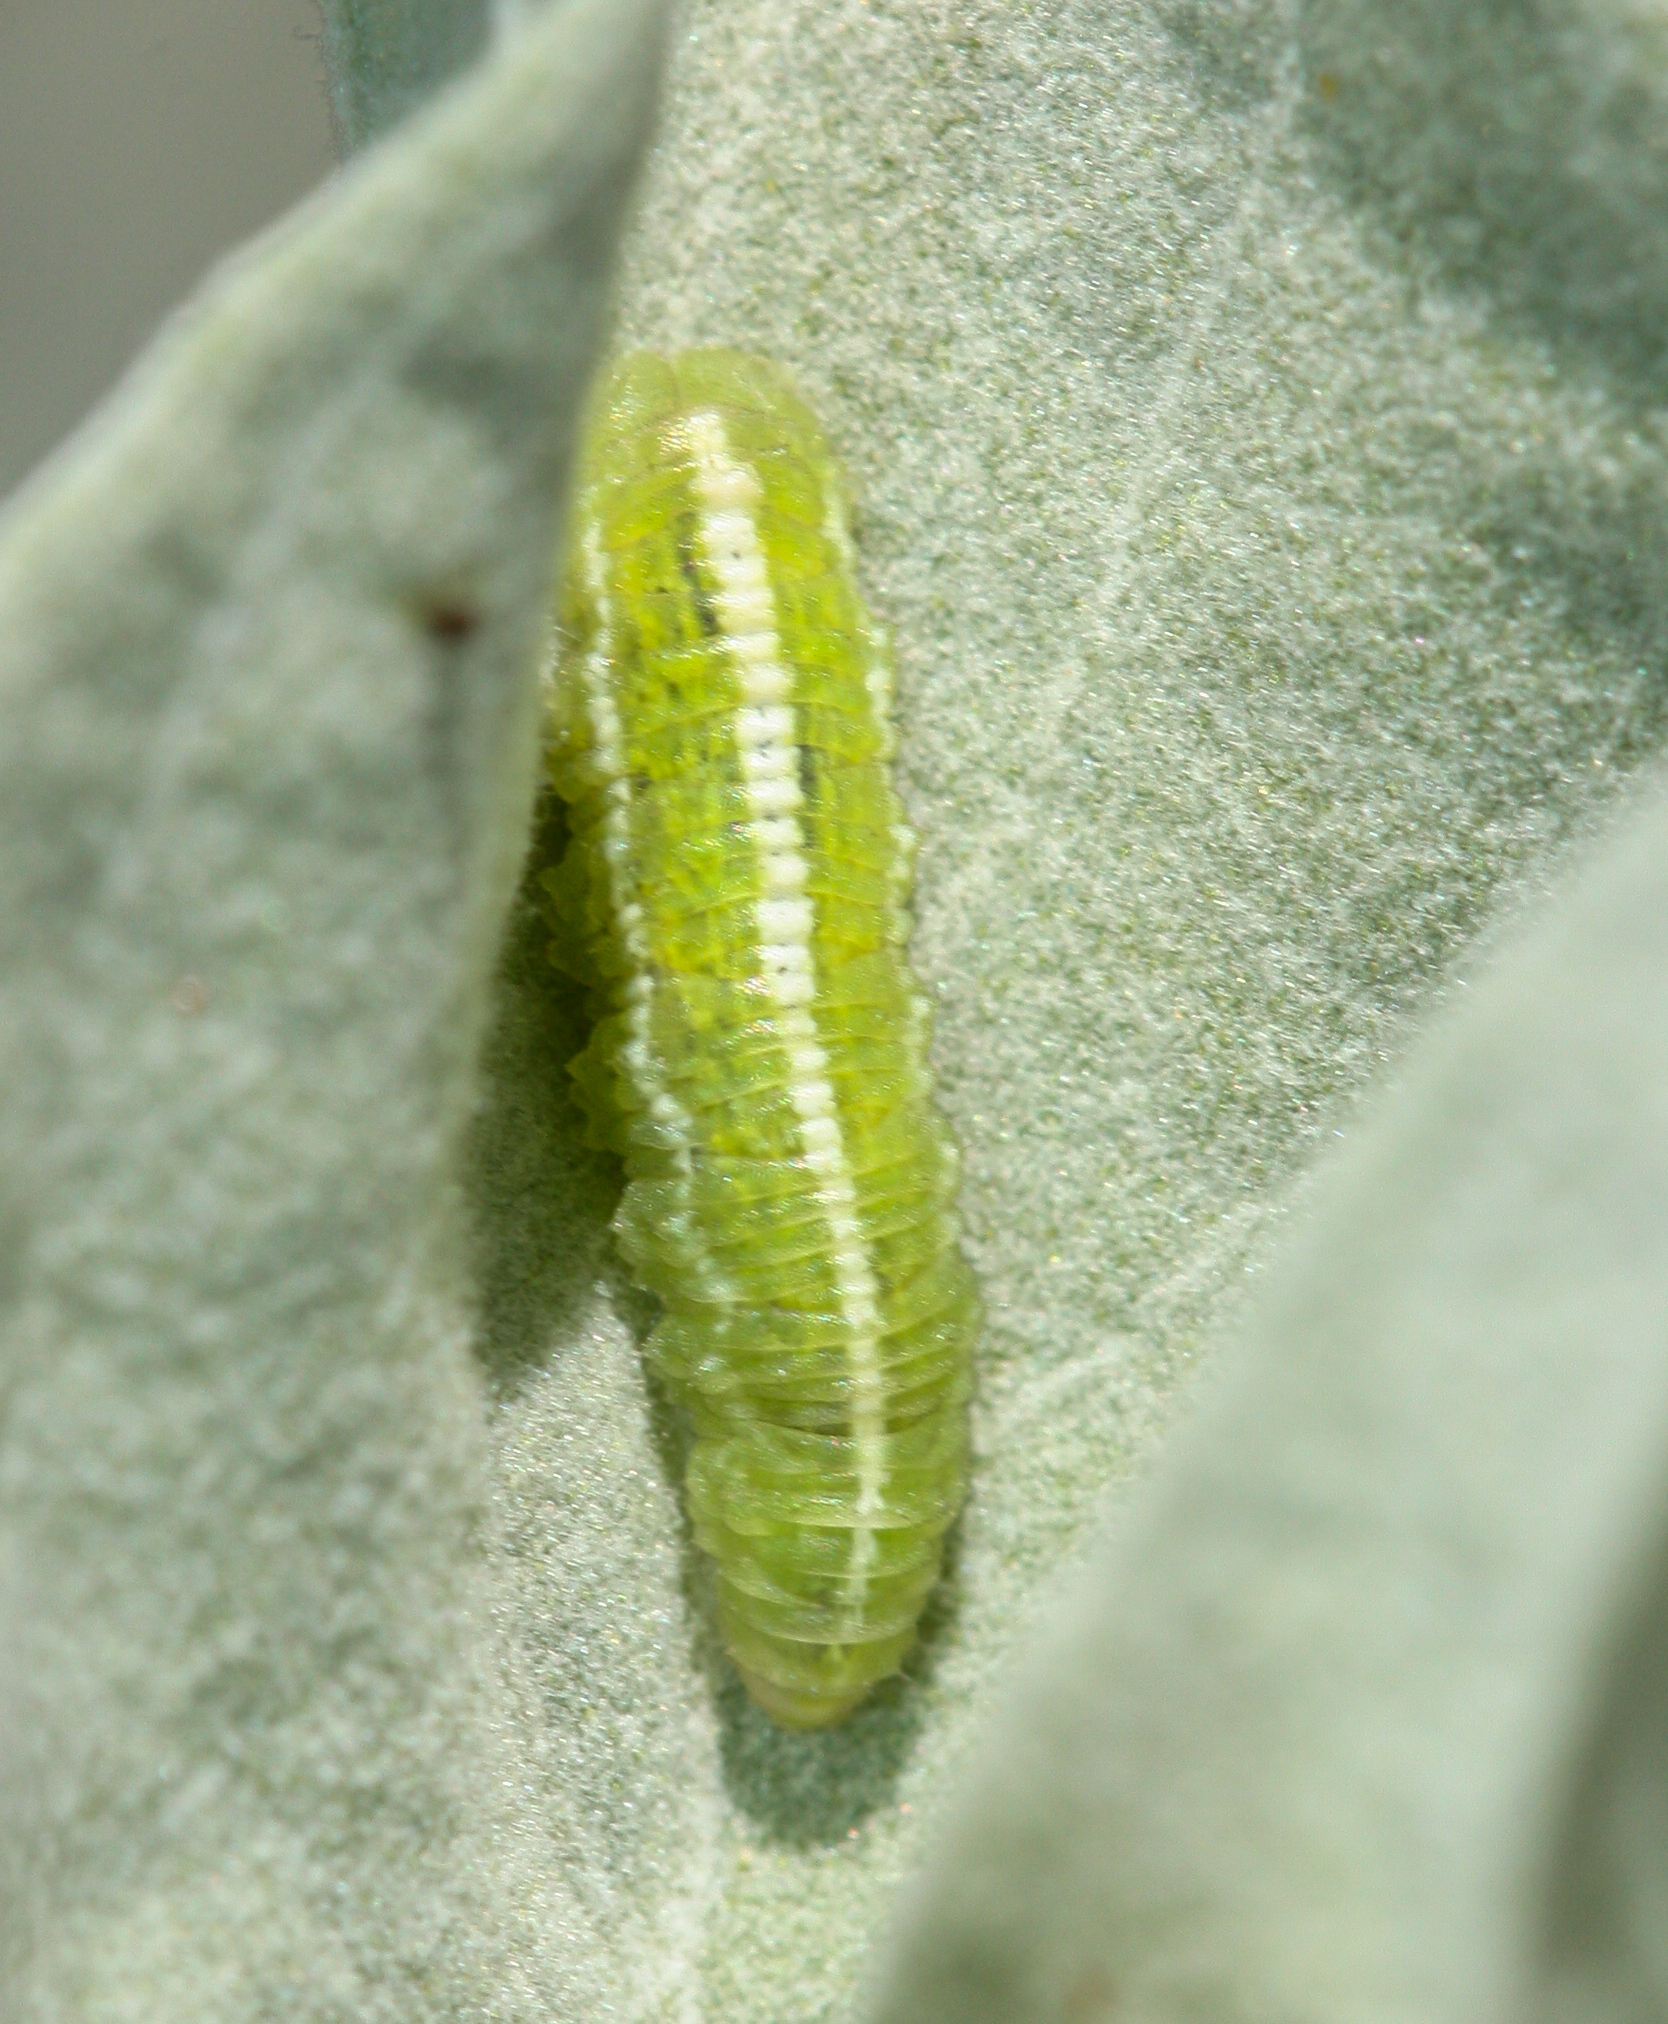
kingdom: Animalia
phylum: Arthropoda
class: Insecta
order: Diptera
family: Syrphidae
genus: Scaeva
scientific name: Scaeva affinis
